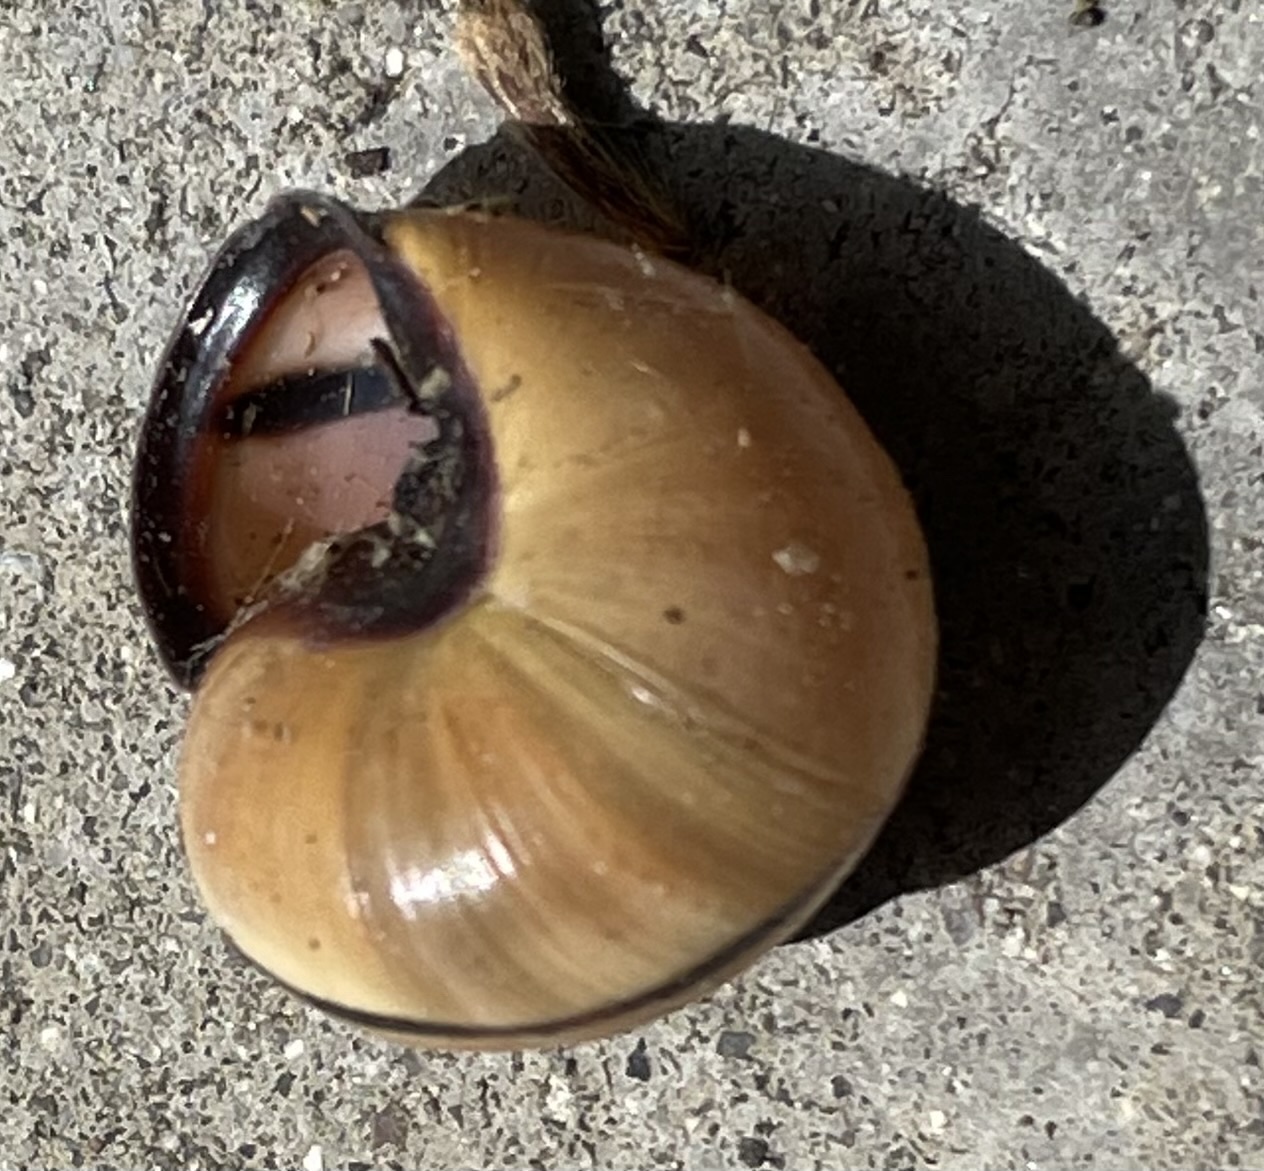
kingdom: Animalia
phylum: Mollusca
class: Gastropoda
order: Stylommatophora
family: Helicidae
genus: Cepaea
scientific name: Cepaea nemoralis
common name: Grovesnail
